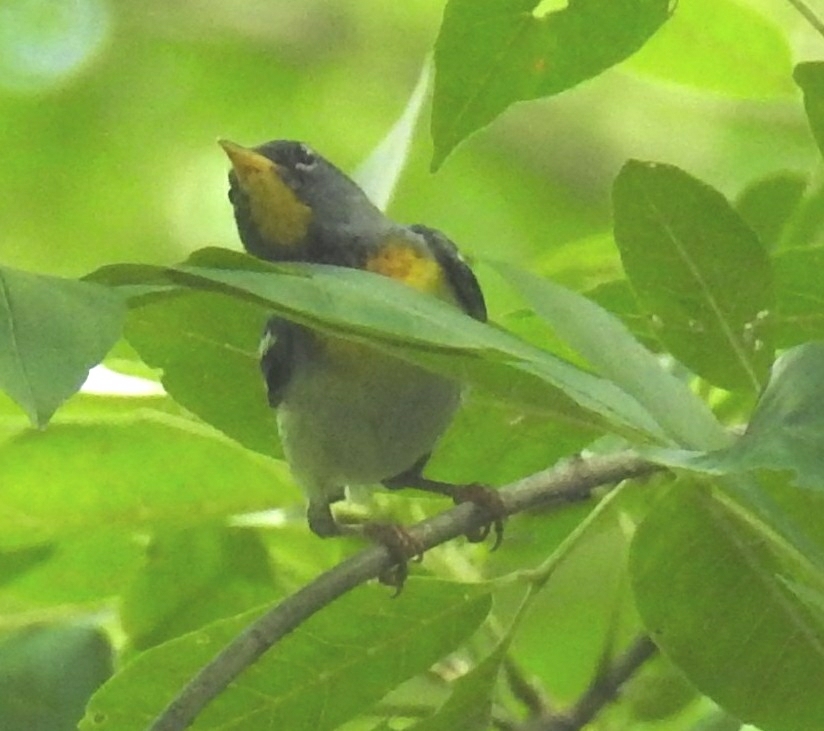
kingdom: Animalia
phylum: Chordata
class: Aves
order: Passeriformes
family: Parulidae
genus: Setophaga
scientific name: Setophaga americana
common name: Northern parula
